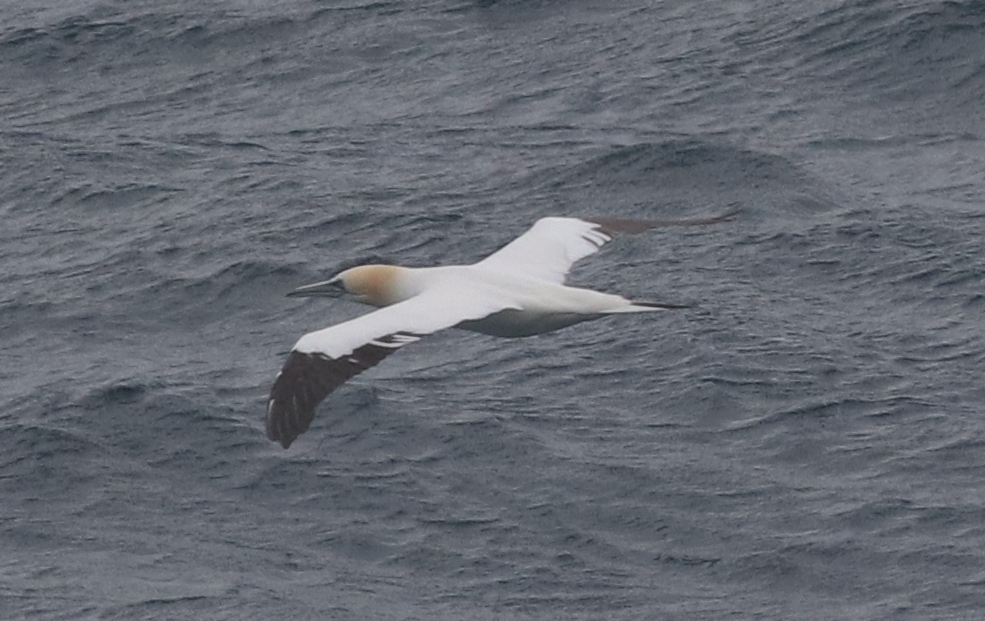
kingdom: Animalia
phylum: Chordata
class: Aves
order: Suliformes
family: Sulidae
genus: Morus
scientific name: Morus bassanus
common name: Northern gannet
